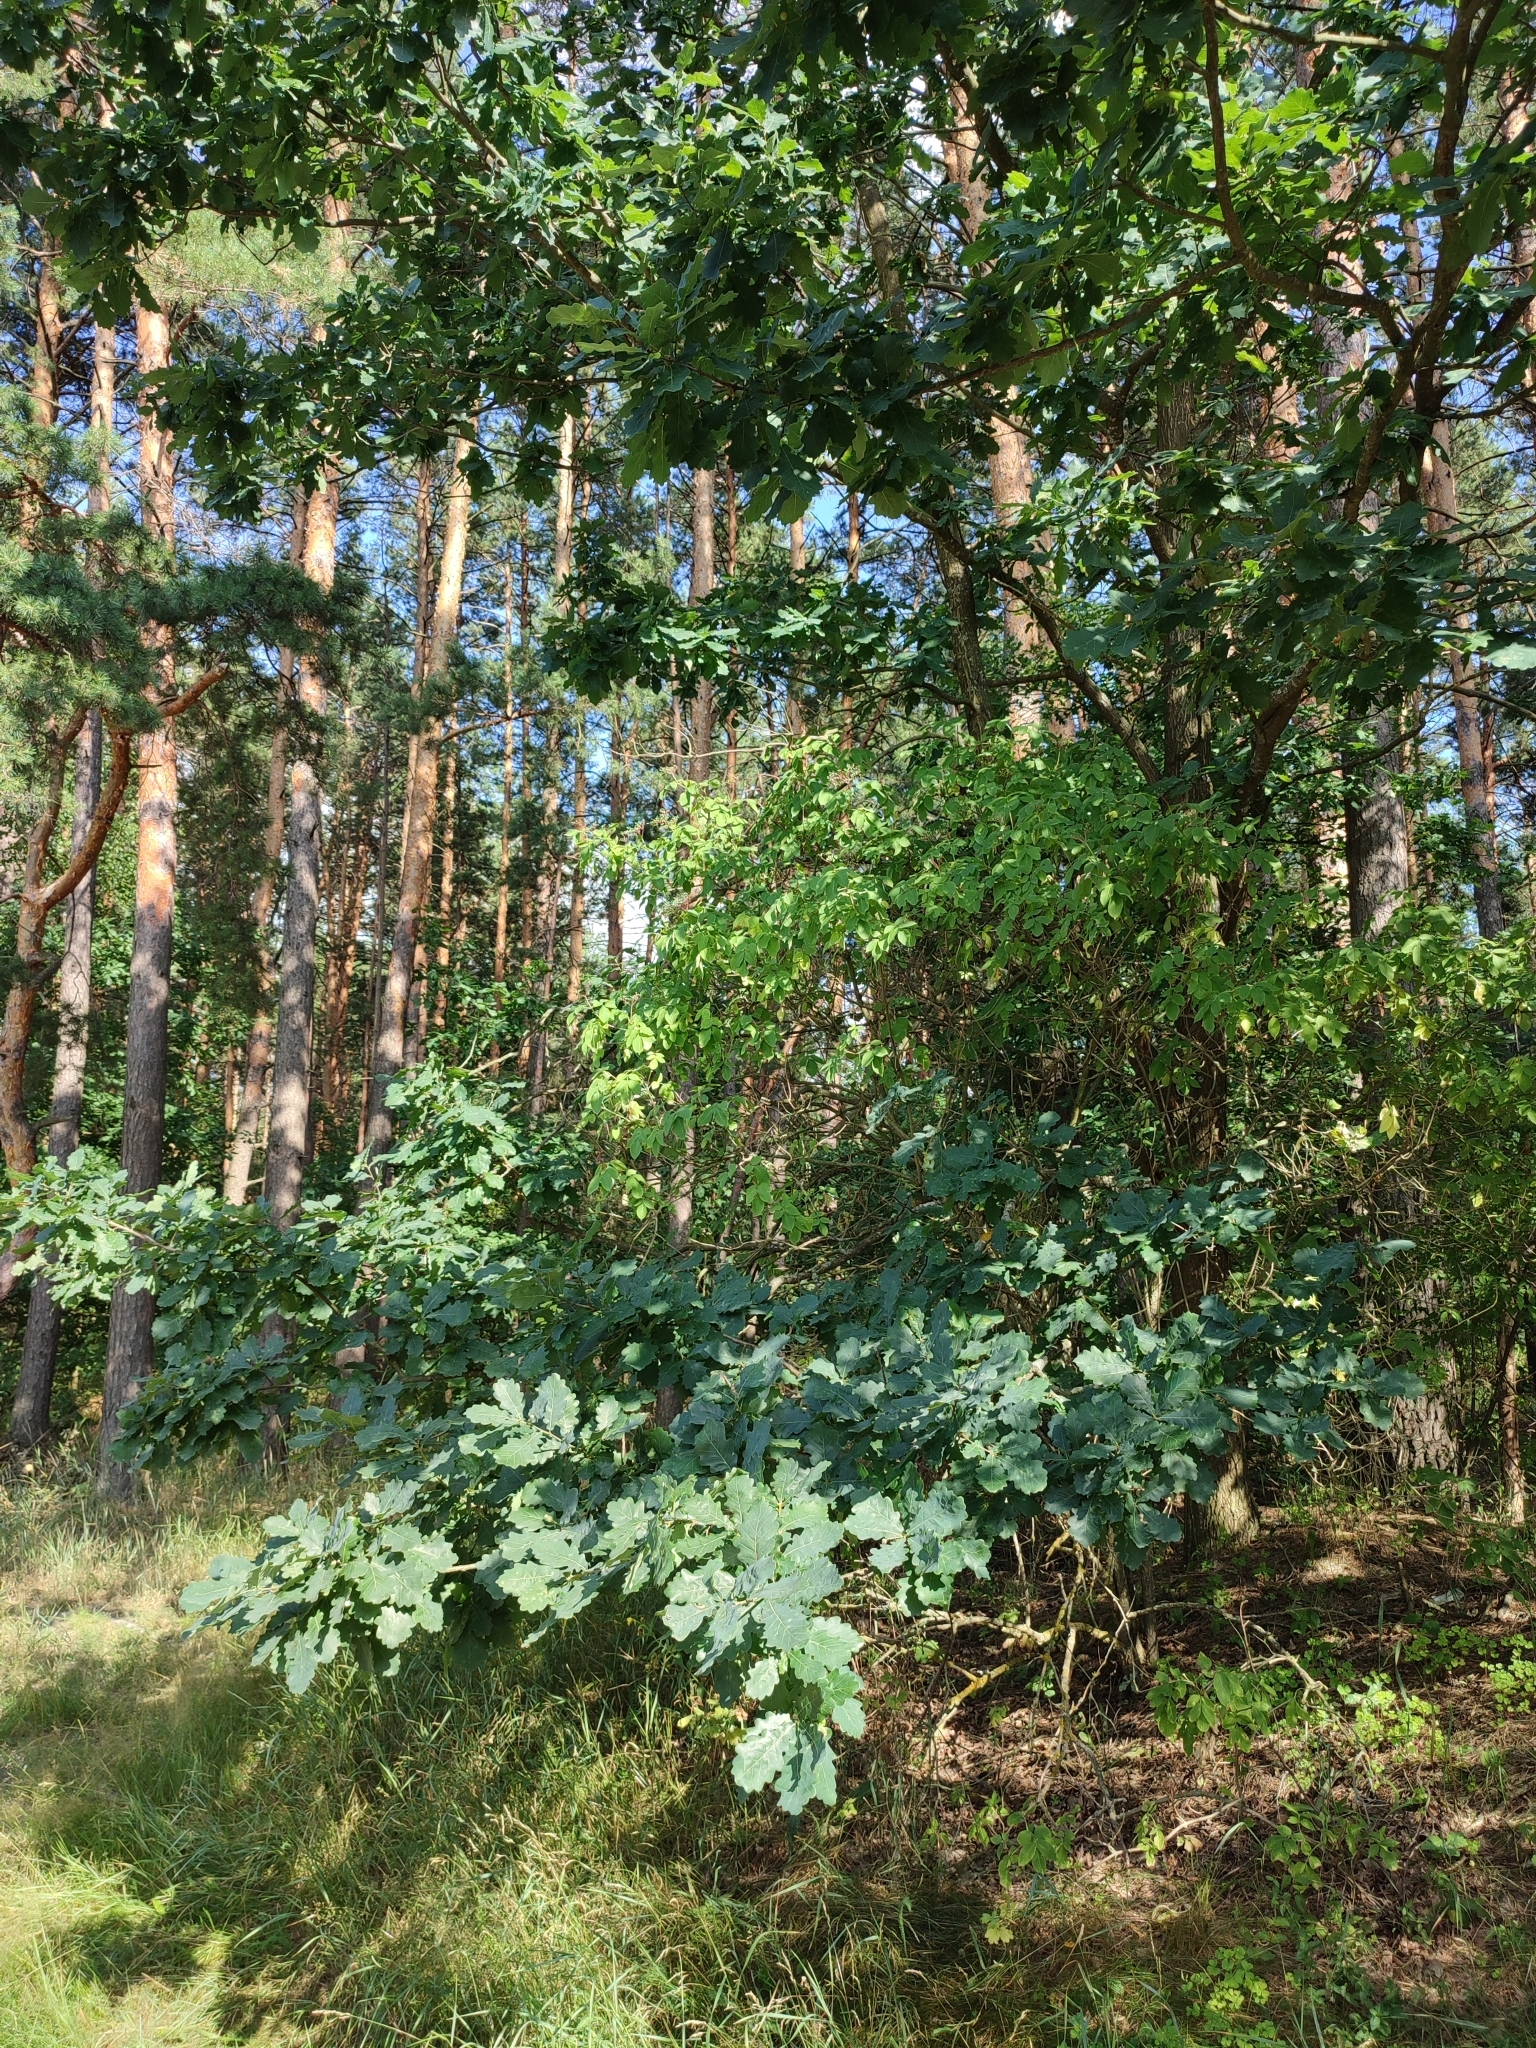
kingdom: Plantae
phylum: Tracheophyta
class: Magnoliopsida
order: Fagales
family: Fagaceae
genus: Quercus
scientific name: Quercus robur
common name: Pedunculate oak
